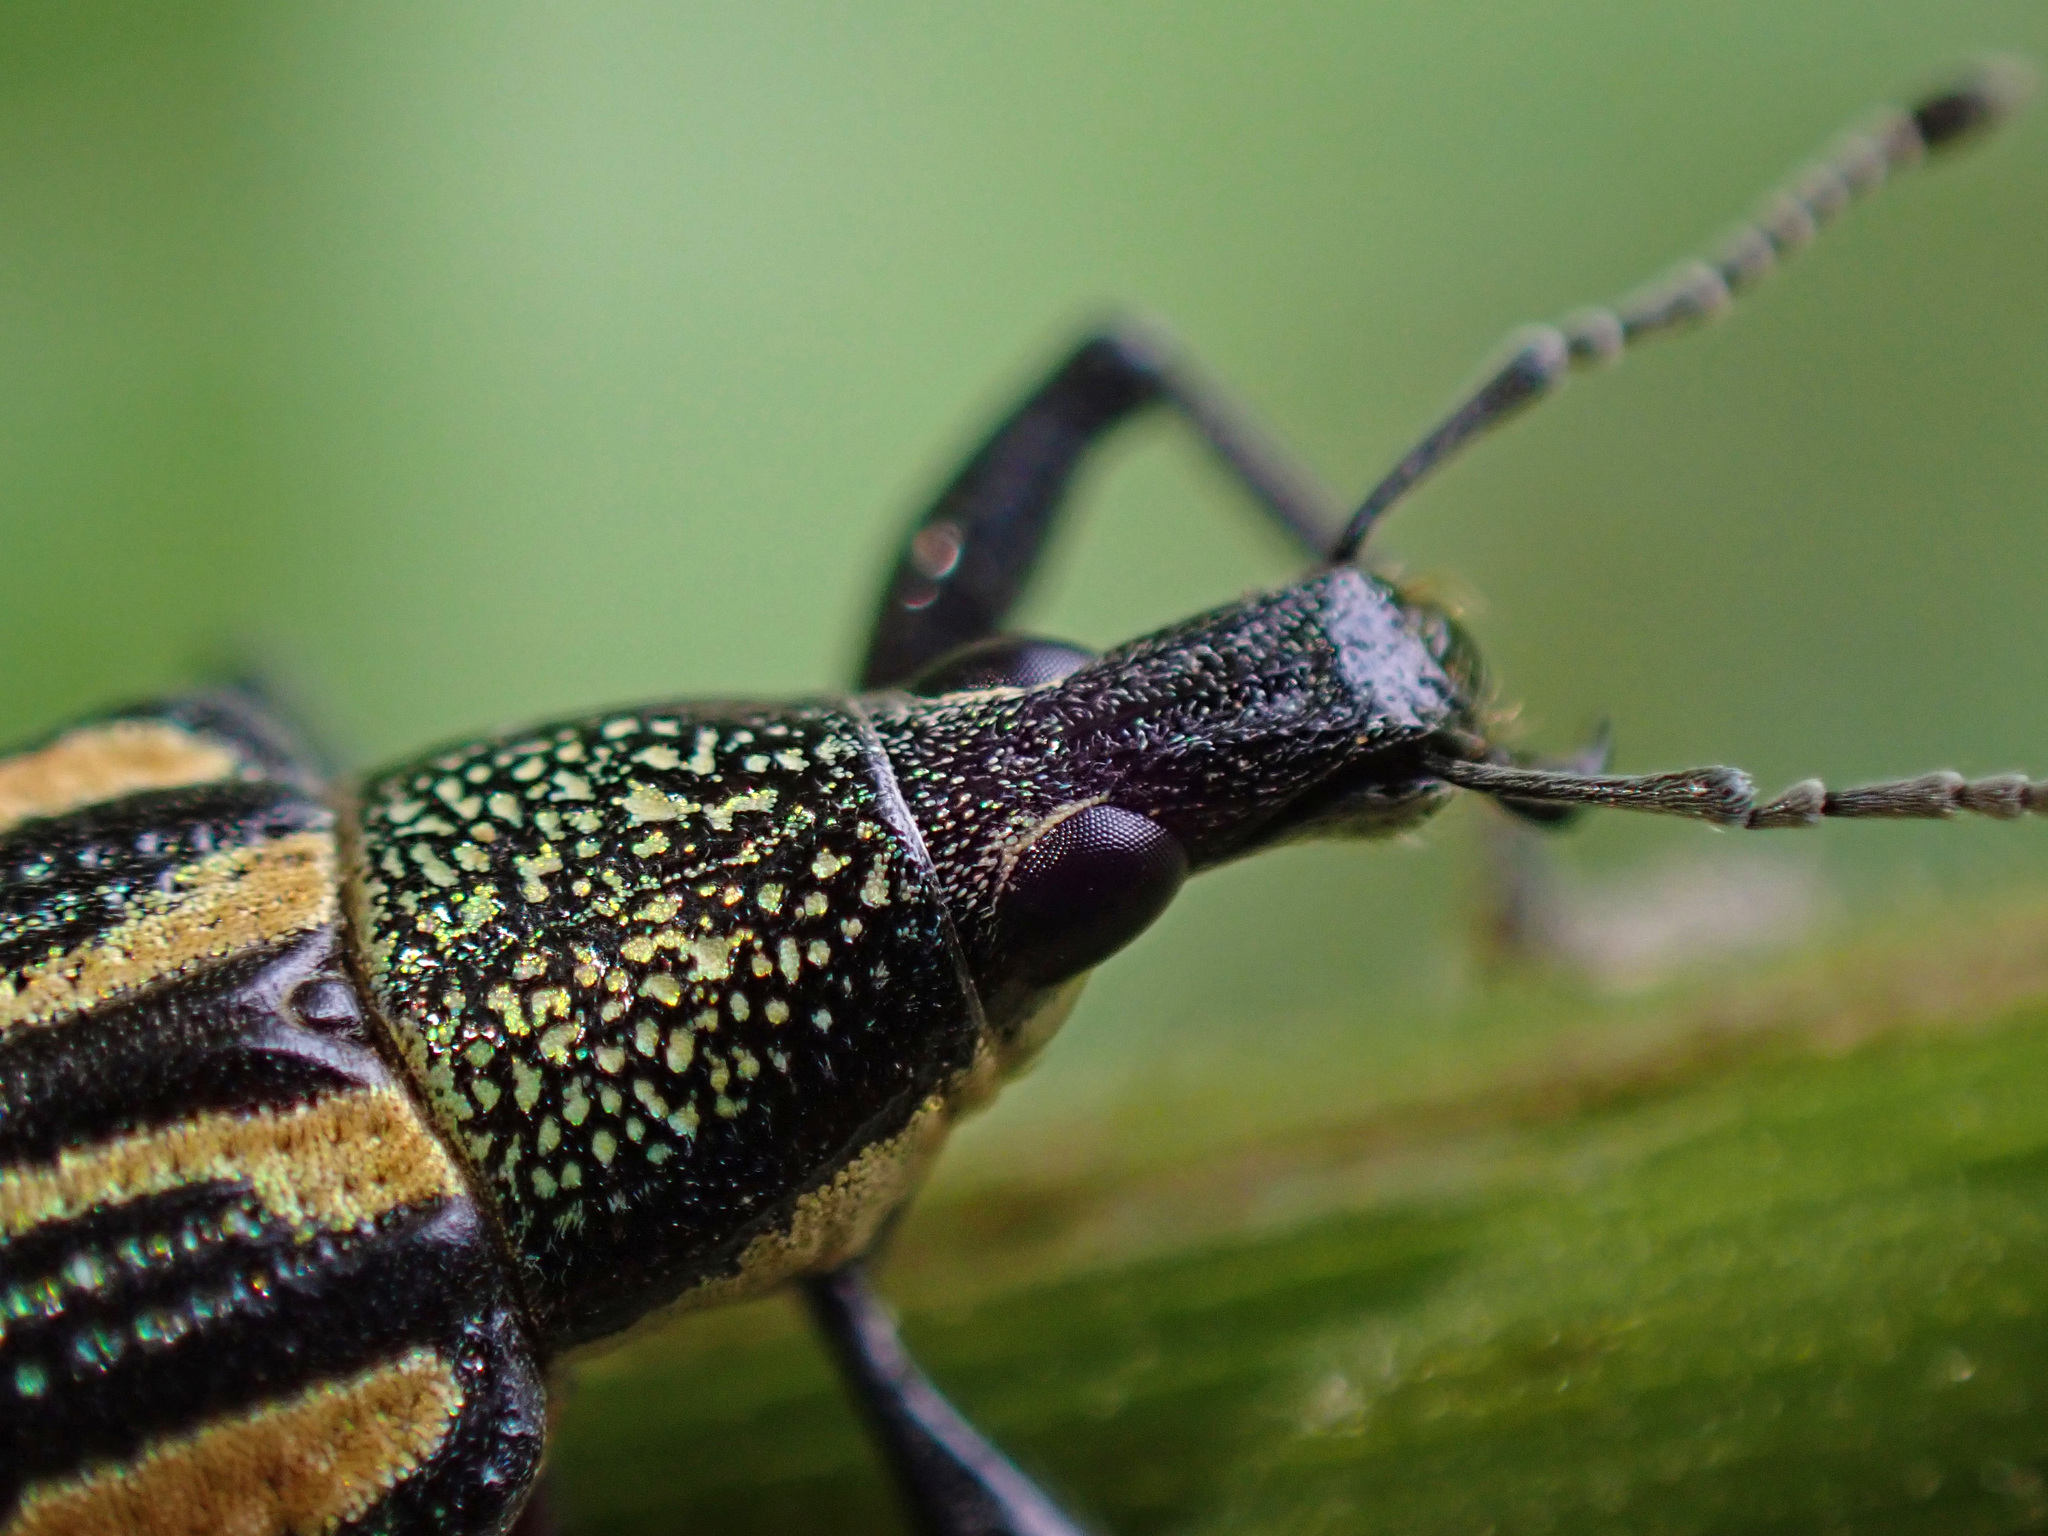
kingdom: Animalia
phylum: Arthropoda
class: Insecta
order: Coleoptera
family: Curculionidae
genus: Diaprepes
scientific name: Diaprepes abbreviatus
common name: Root weevil
